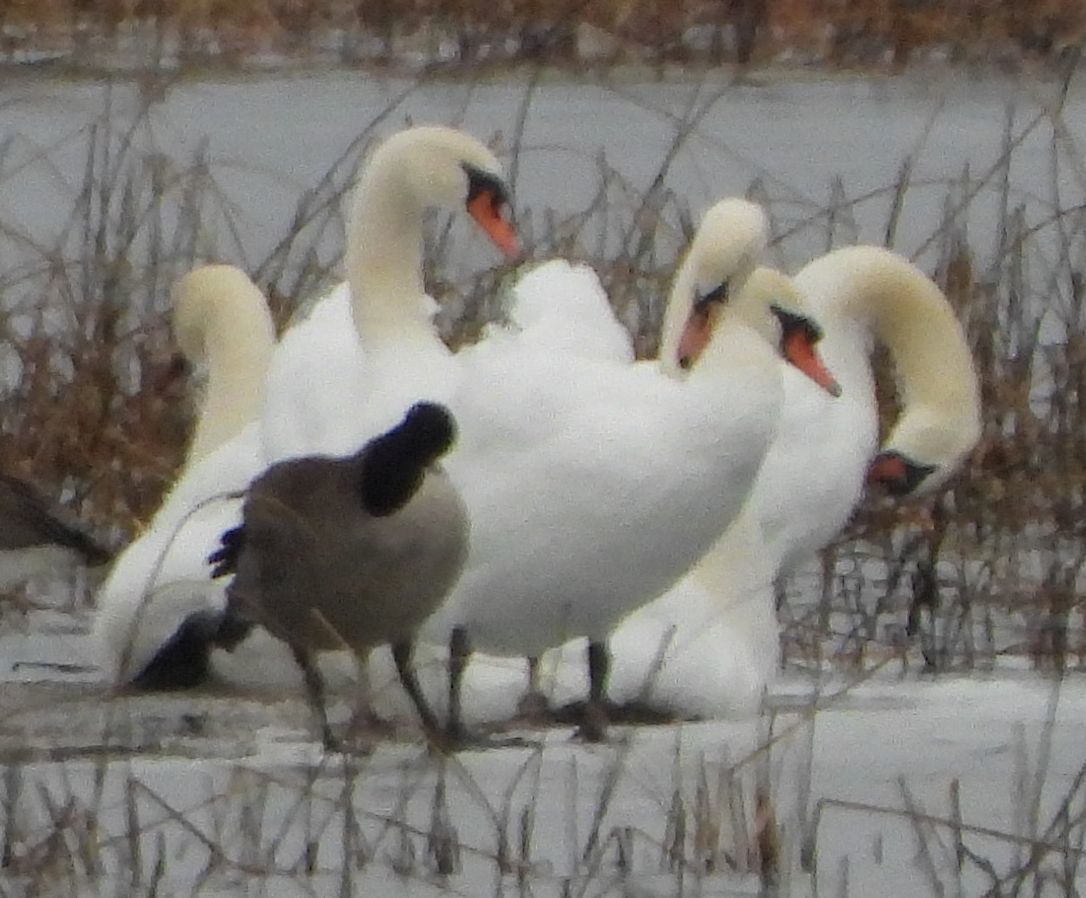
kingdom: Animalia
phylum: Chordata
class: Aves
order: Anseriformes
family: Anatidae
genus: Cygnus
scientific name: Cygnus olor
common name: Mute swan
